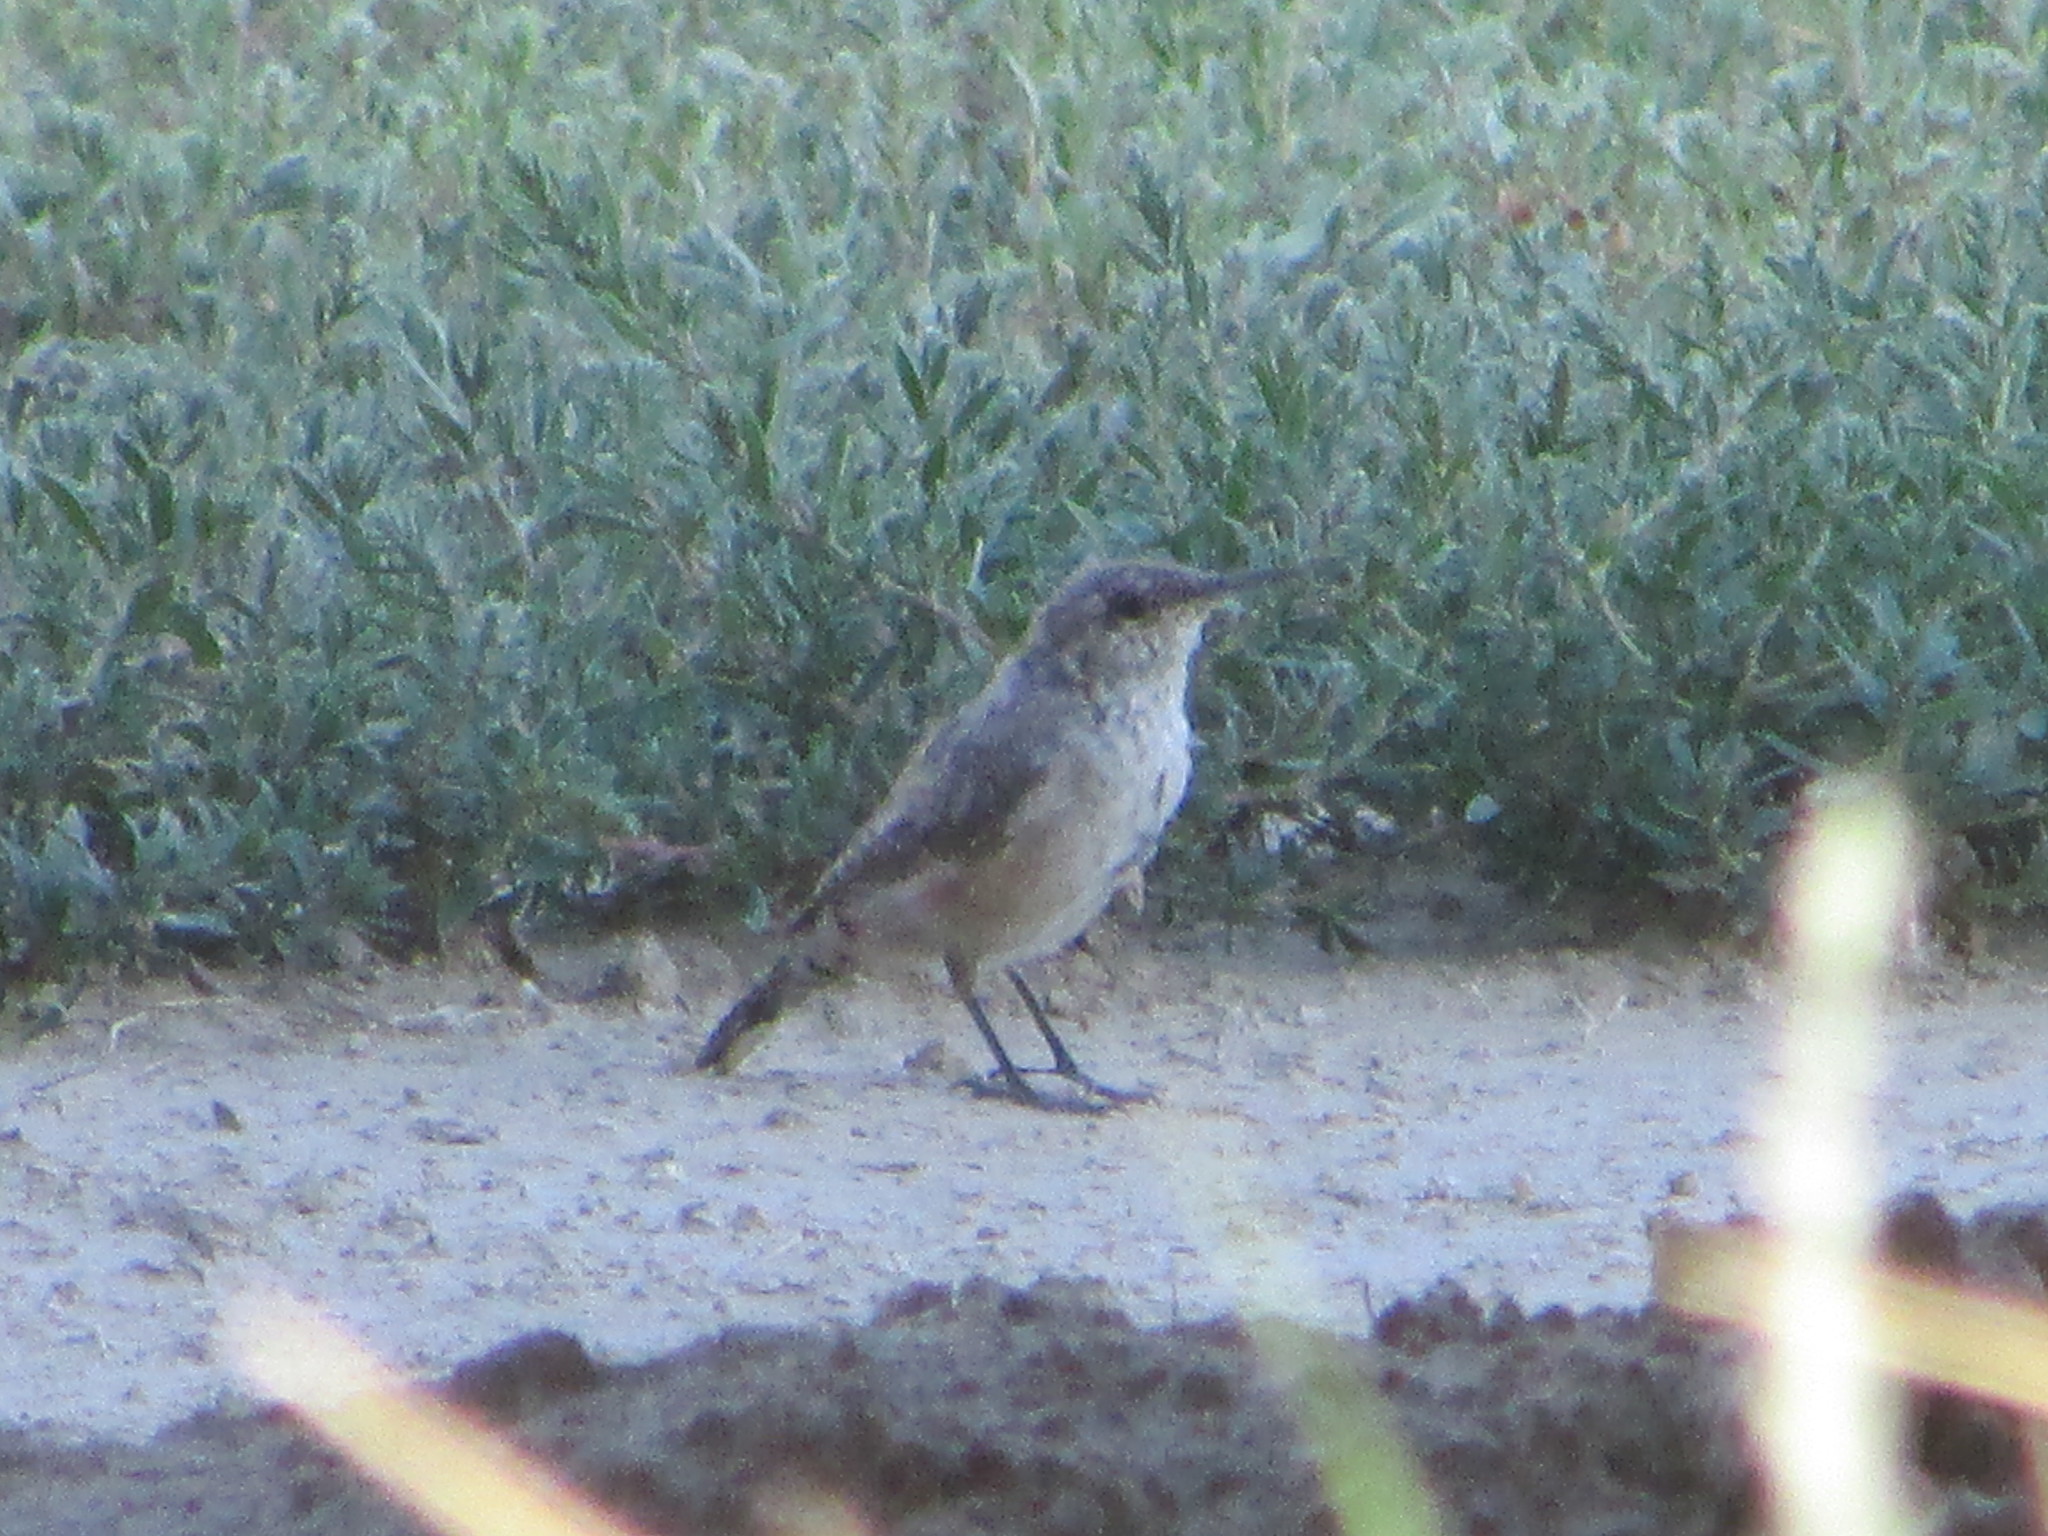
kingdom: Animalia
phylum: Chordata
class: Aves
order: Passeriformes
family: Troglodytidae
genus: Salpinctes
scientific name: Salpinctes obsoletus
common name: Rock wren
